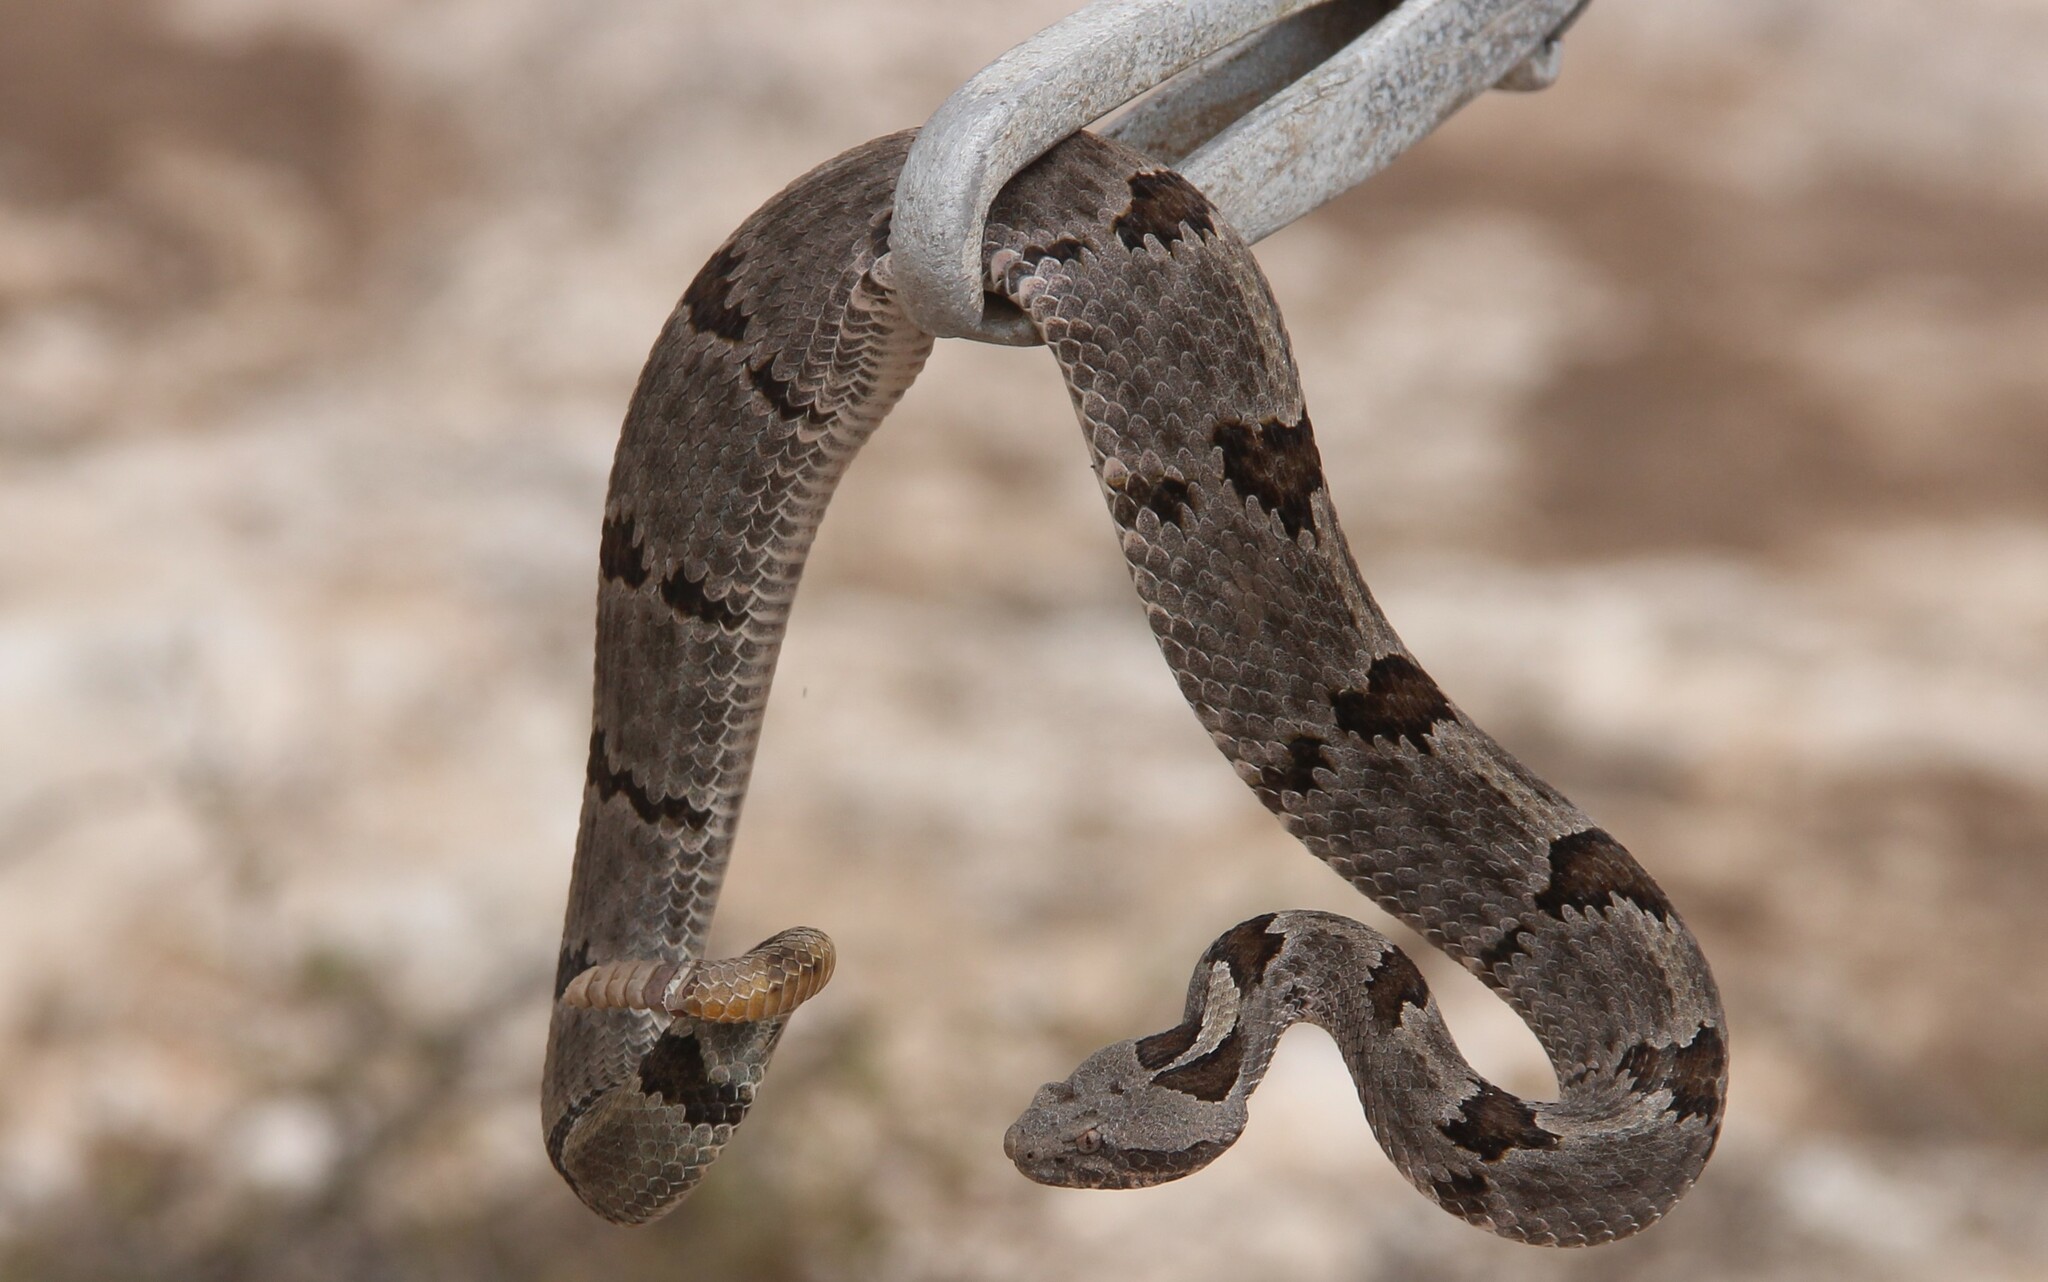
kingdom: Animalia
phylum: Chordata
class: Squamata
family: Viperidae
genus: Crotalus
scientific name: Crotalus lepidus
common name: Rock rattlesnake
